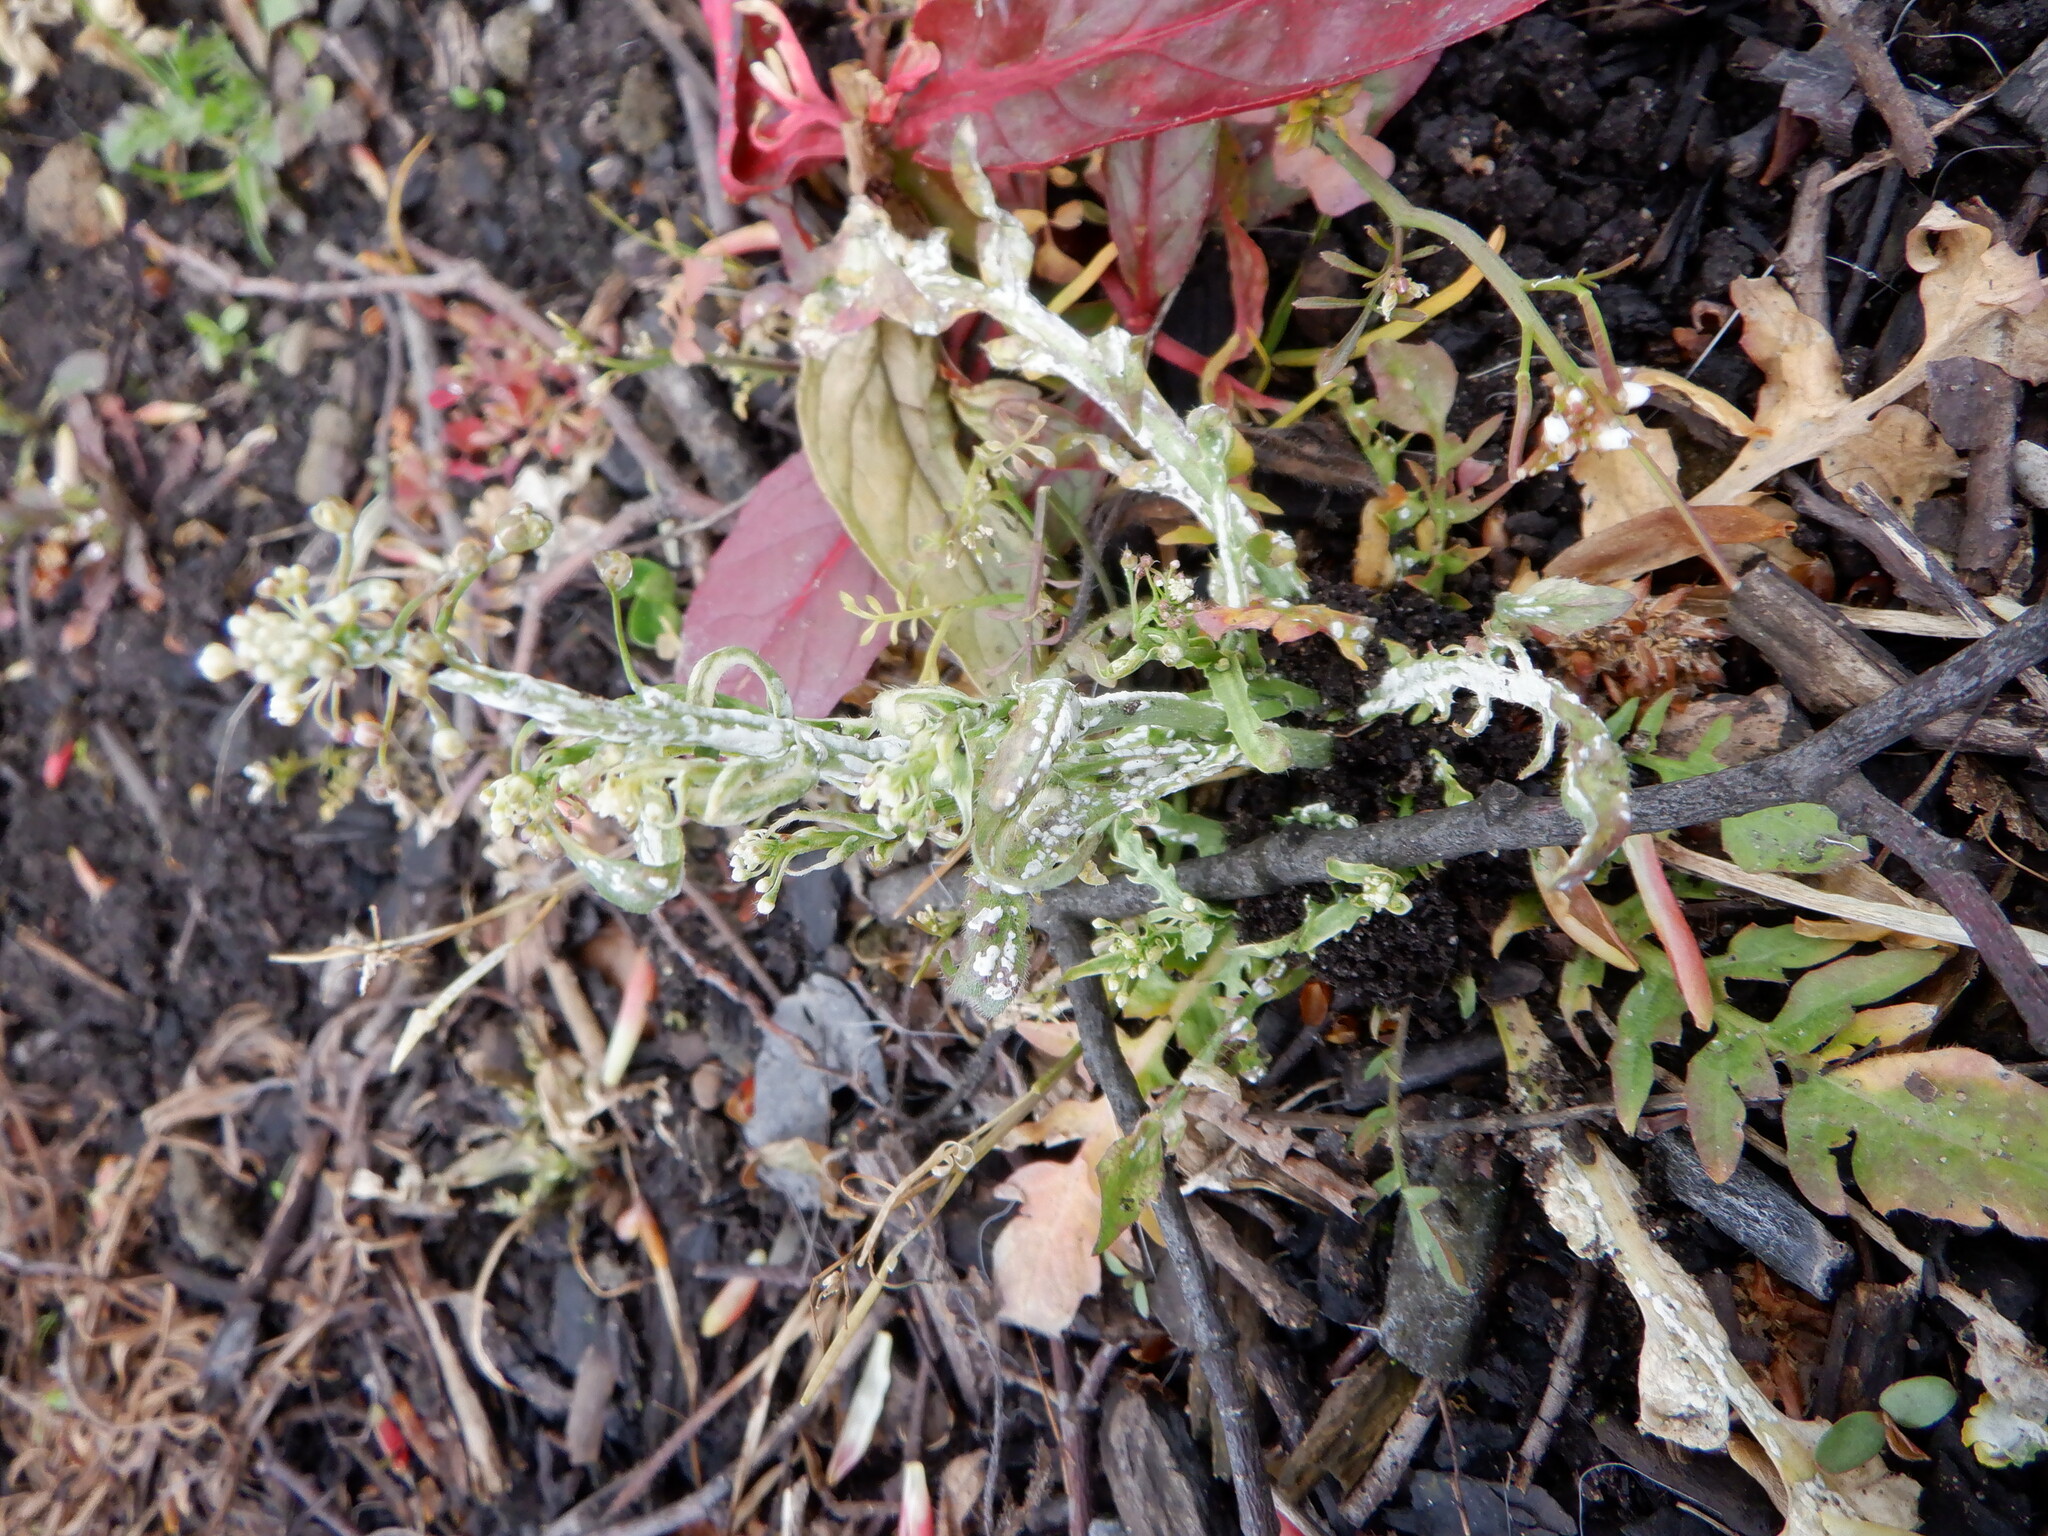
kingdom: Chromista
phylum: Oomycota
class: Peronosporea
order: Albuginales
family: Albuginaceae
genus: Albugo
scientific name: Albugo candida
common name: Crucifer white blister
